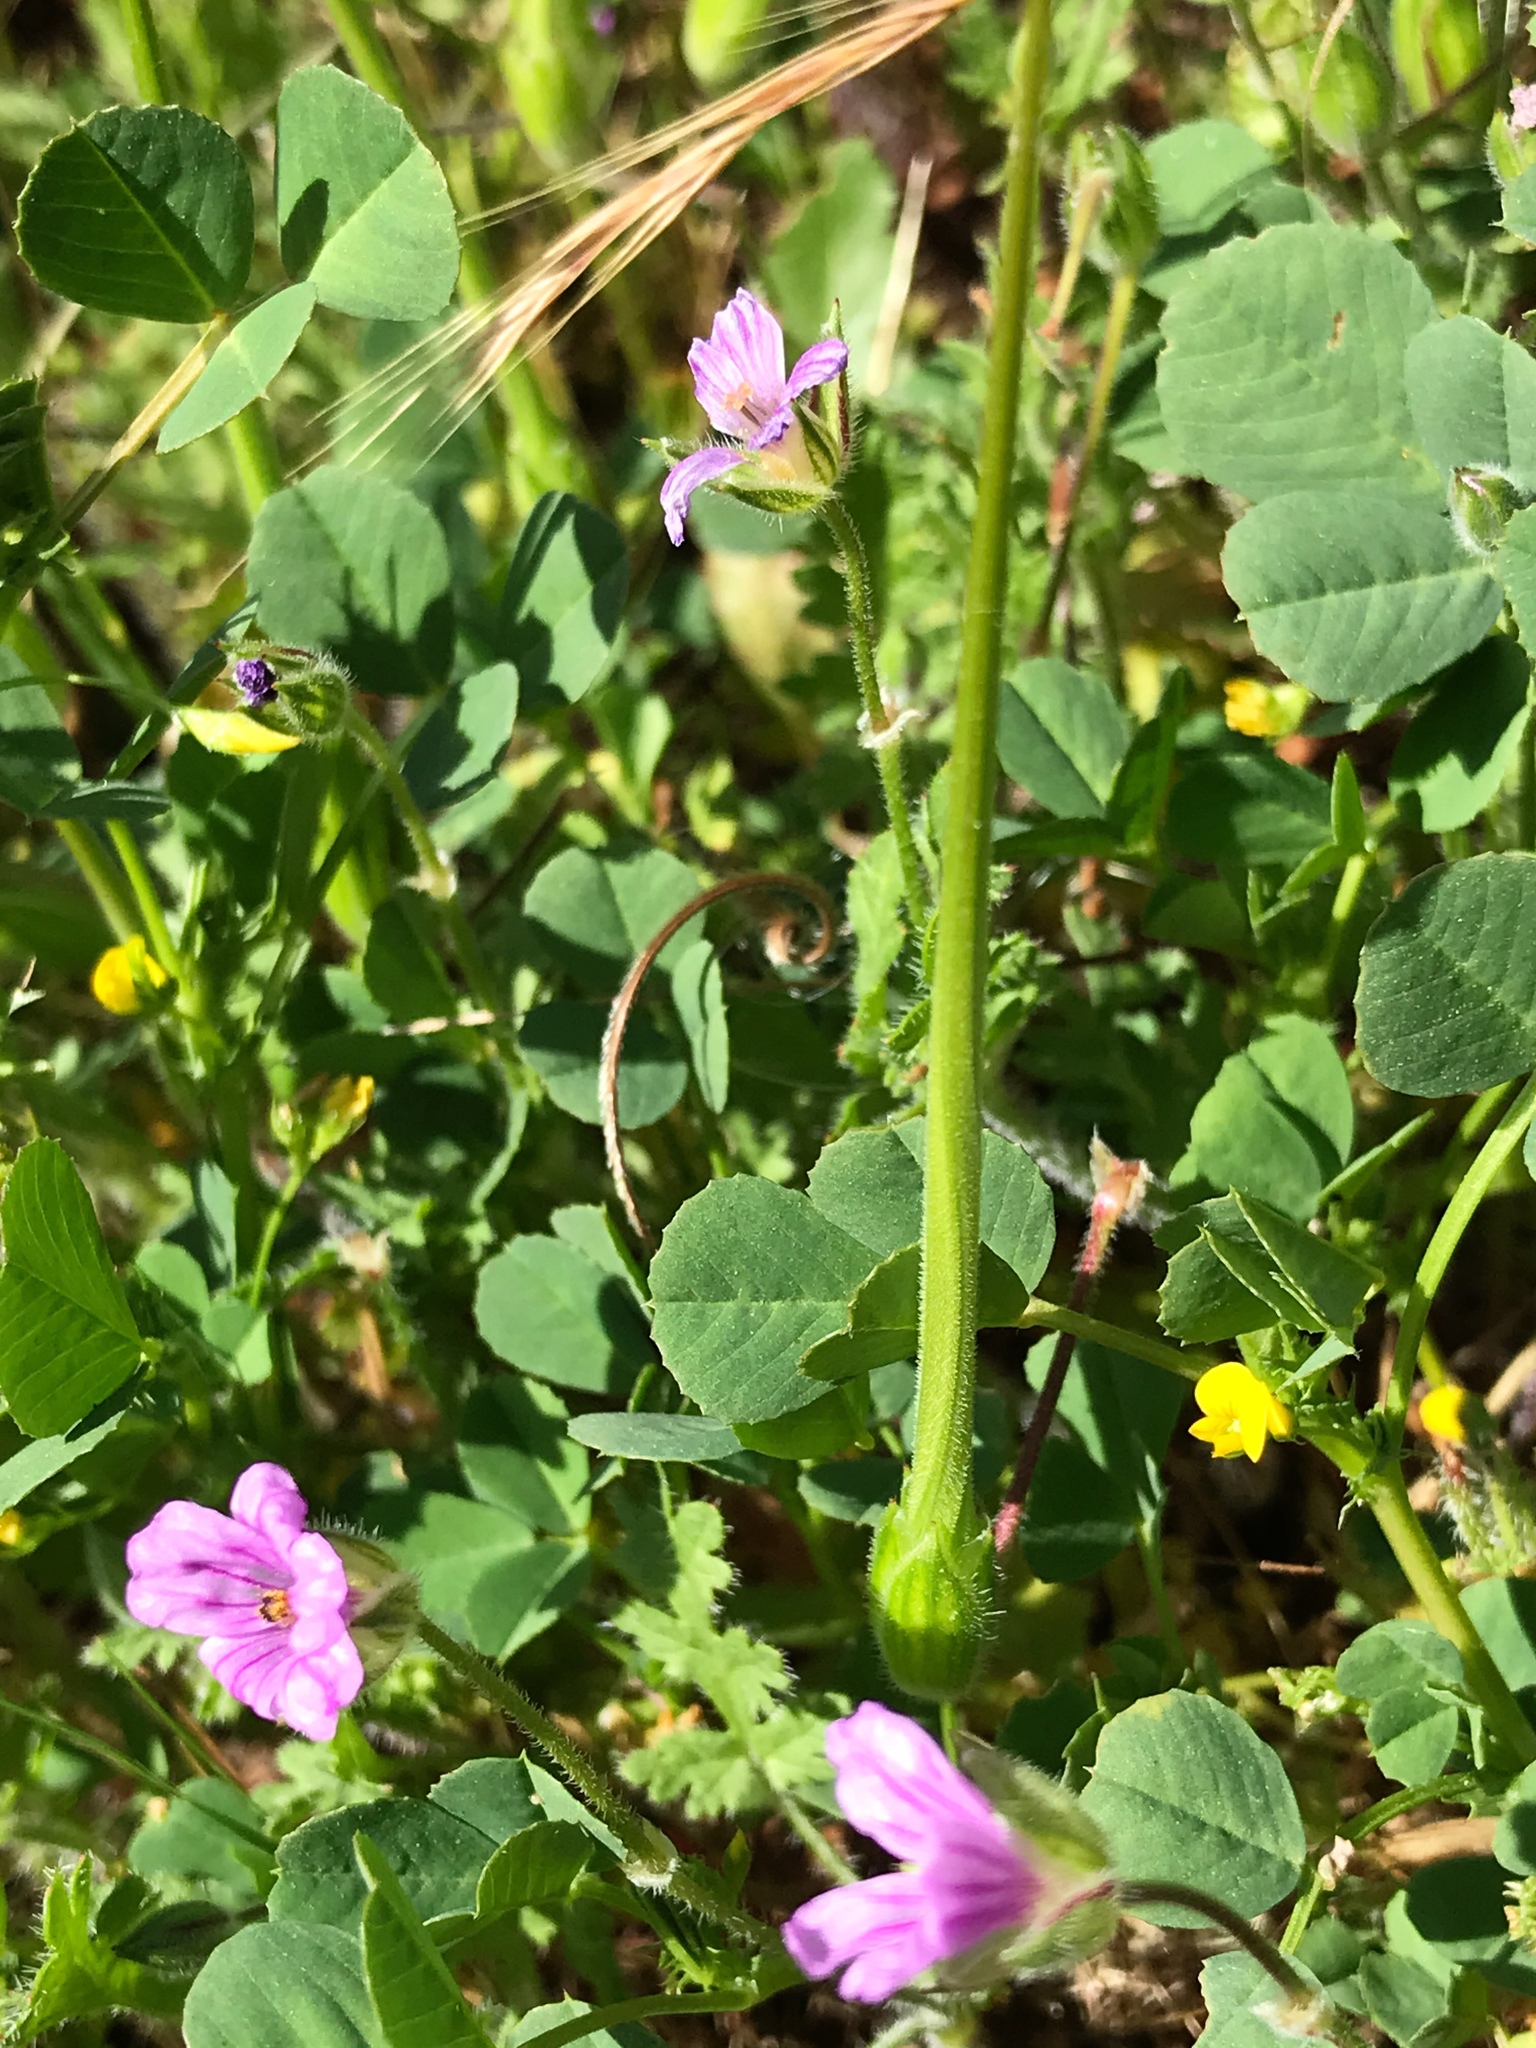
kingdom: Plantae
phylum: Tracheophyta
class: Magnoliopsida
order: Geraniales
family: Geraniaceae
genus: Erodium
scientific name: Erodium botrys
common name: Mediterranean stork's-bill
